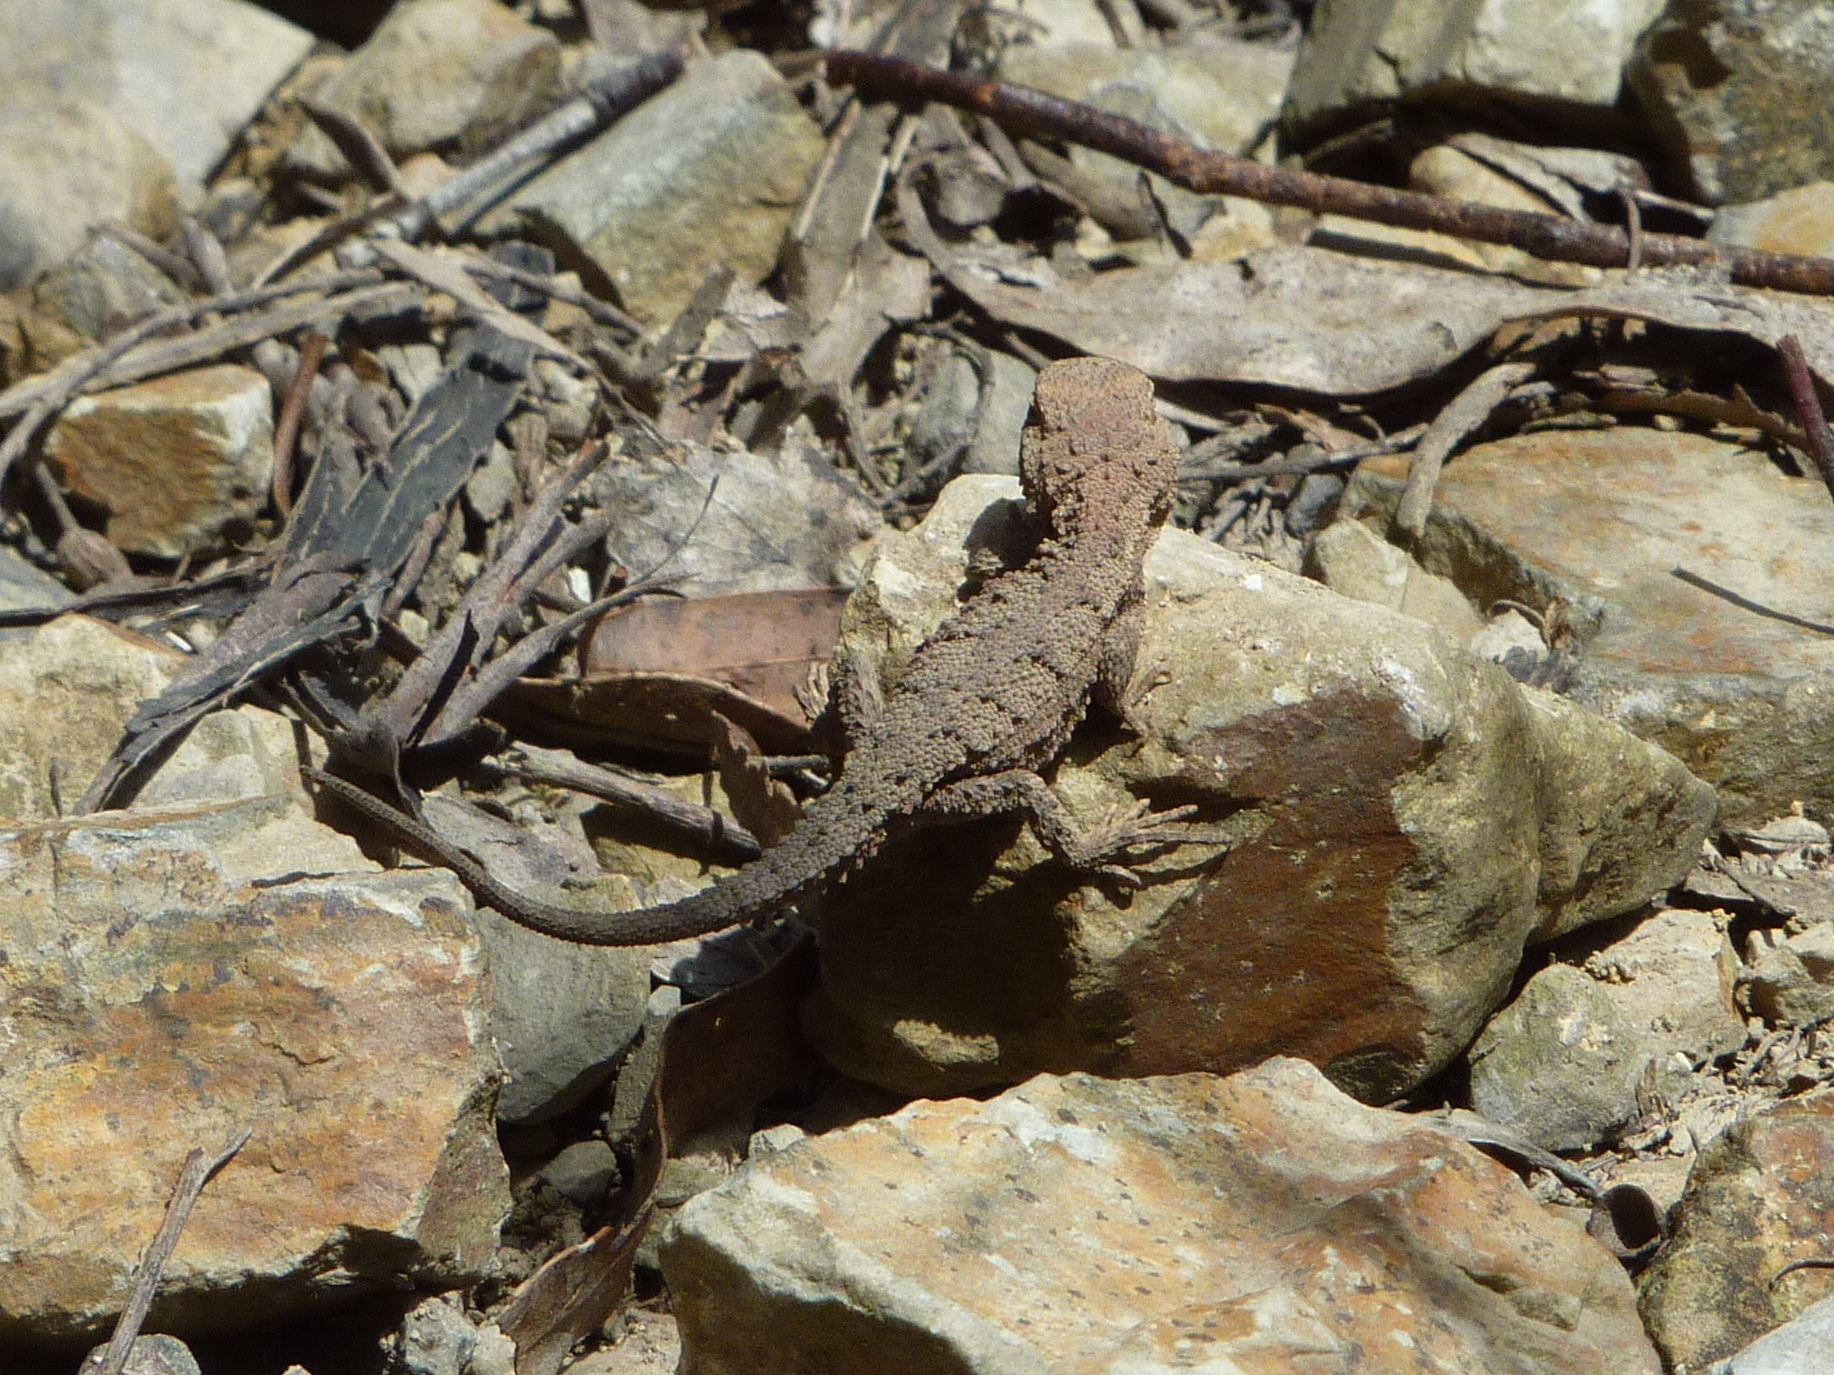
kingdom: Animalia
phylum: Chordata
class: Squamata
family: Agamidae
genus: Rankinia
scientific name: Rankinia diemensis
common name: Mountain dragon
